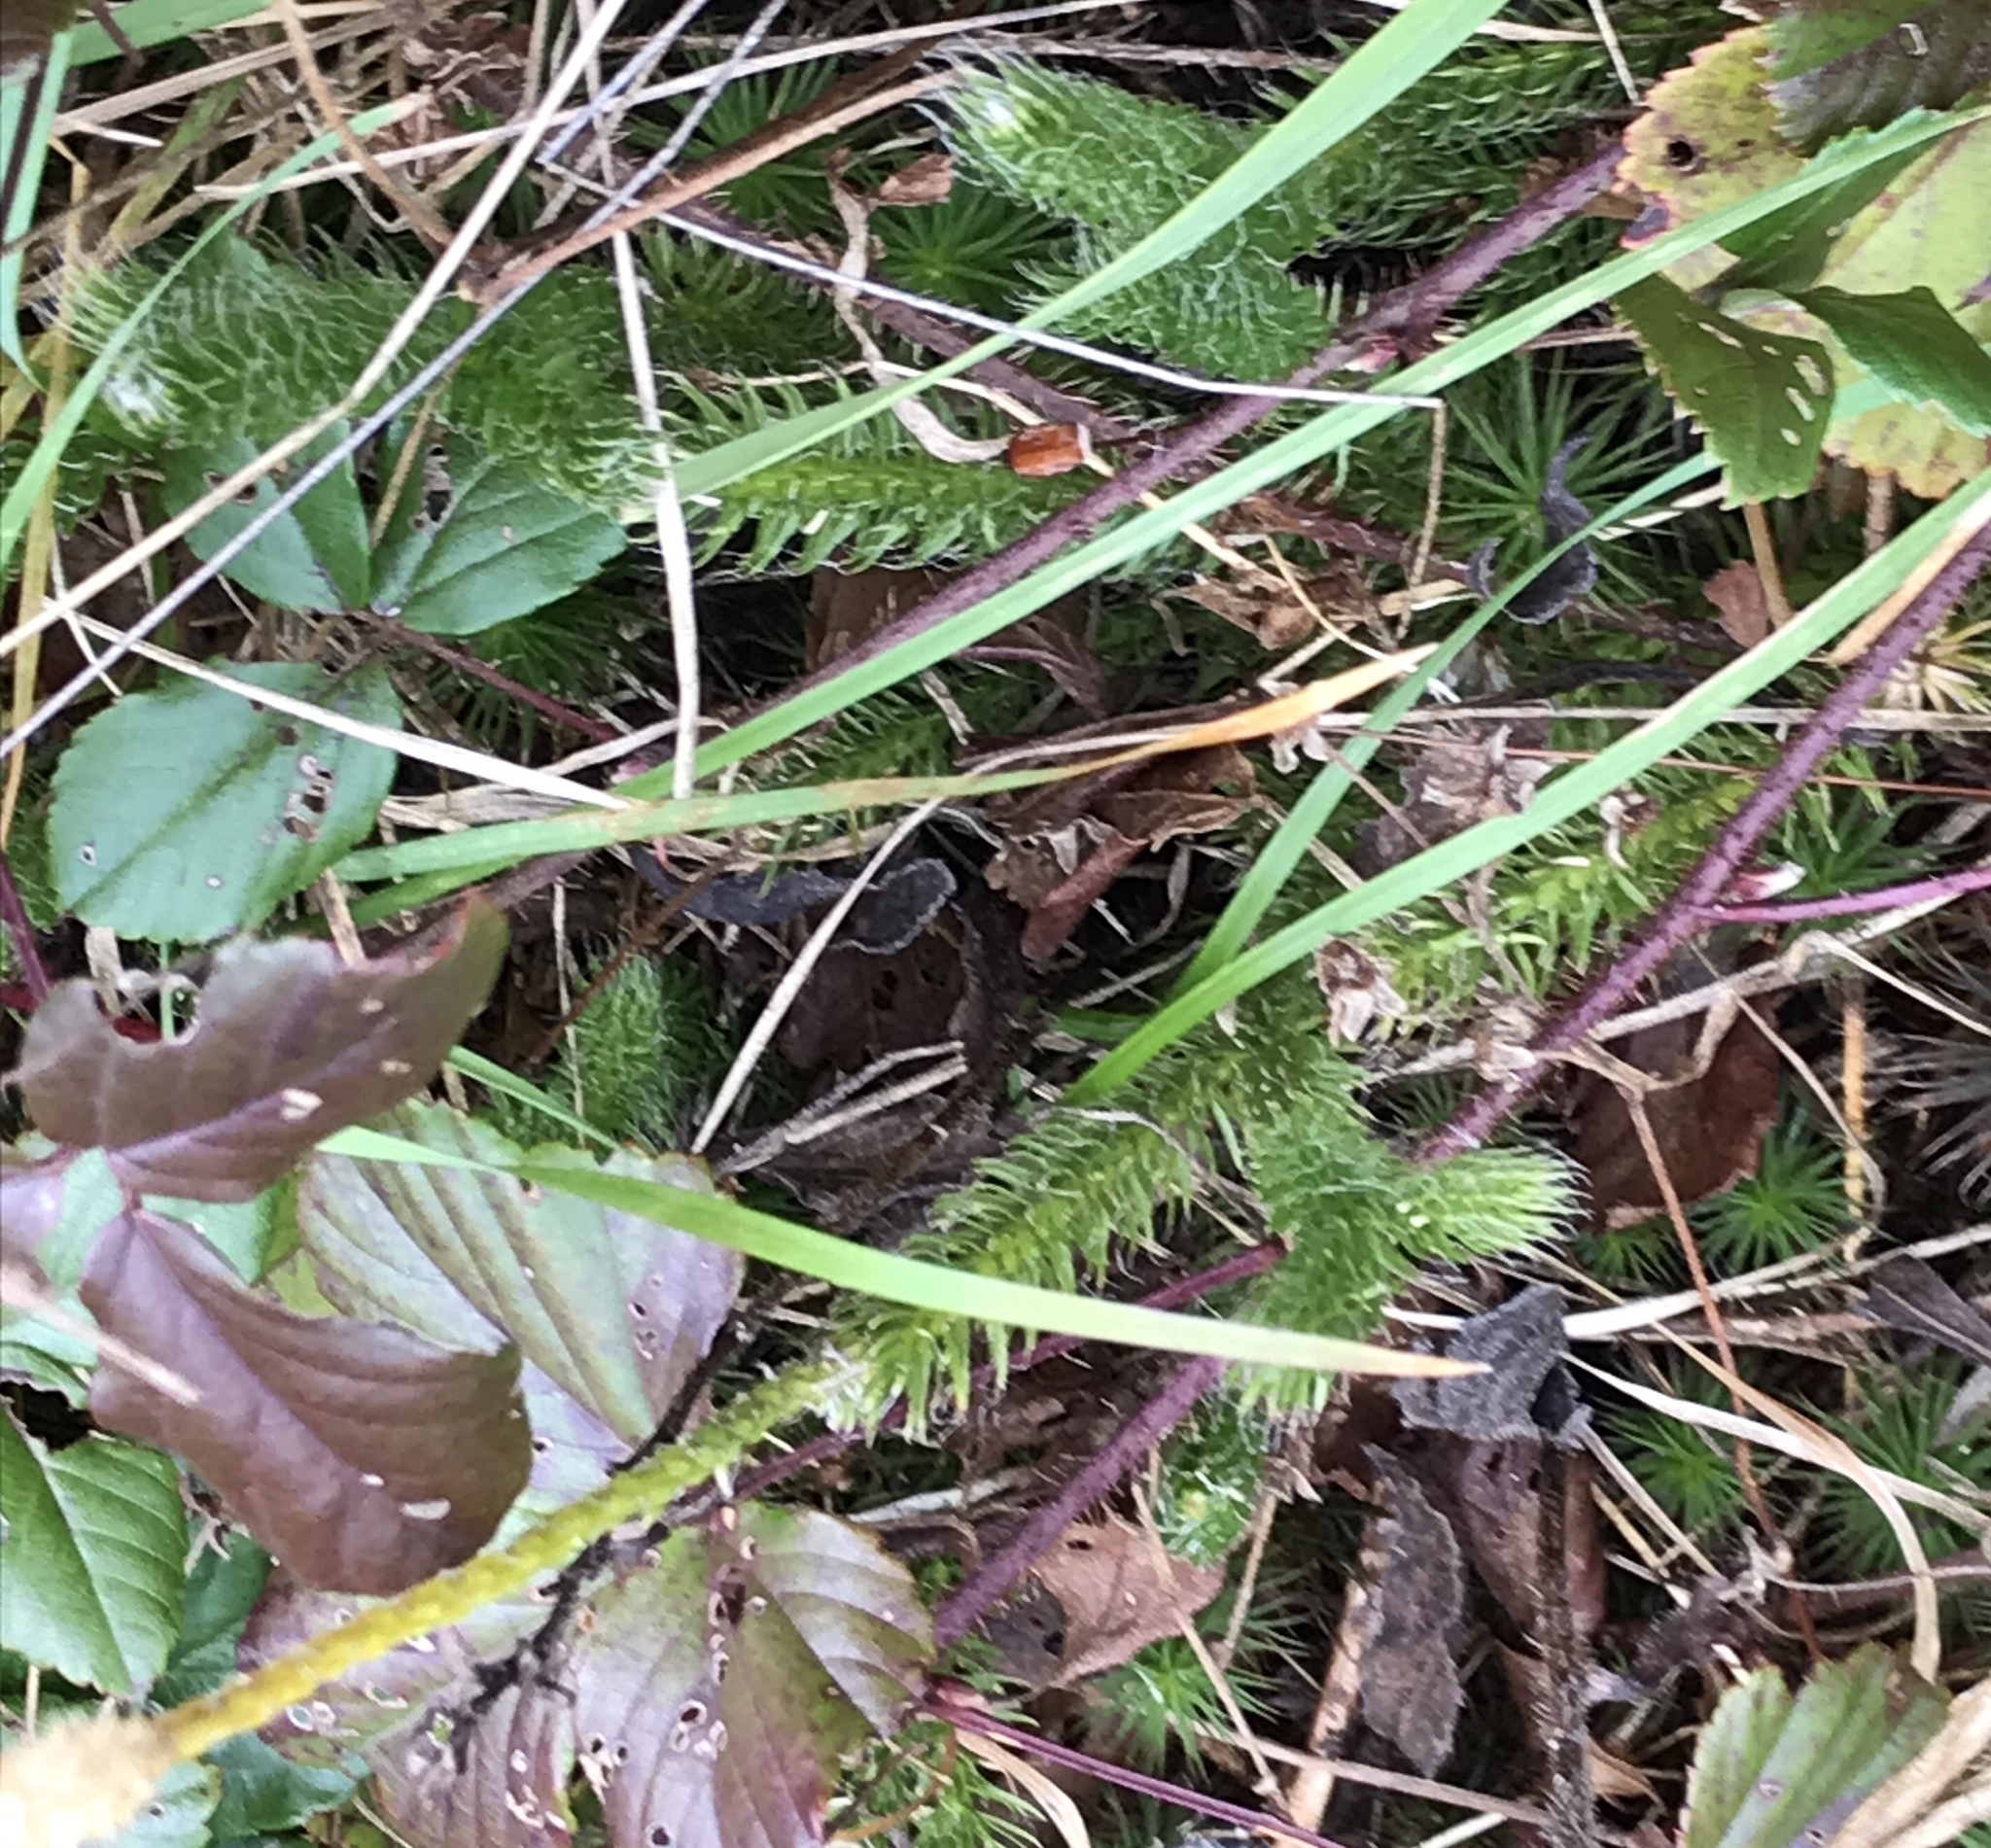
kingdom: Plantae
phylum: Tracheophyta
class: Lycopodiopsida
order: Lycopodiales
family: Lycopodiaceae
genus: Lycopodium
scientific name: Lycopodium clavatum
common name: Stag's-horn clubmoss
